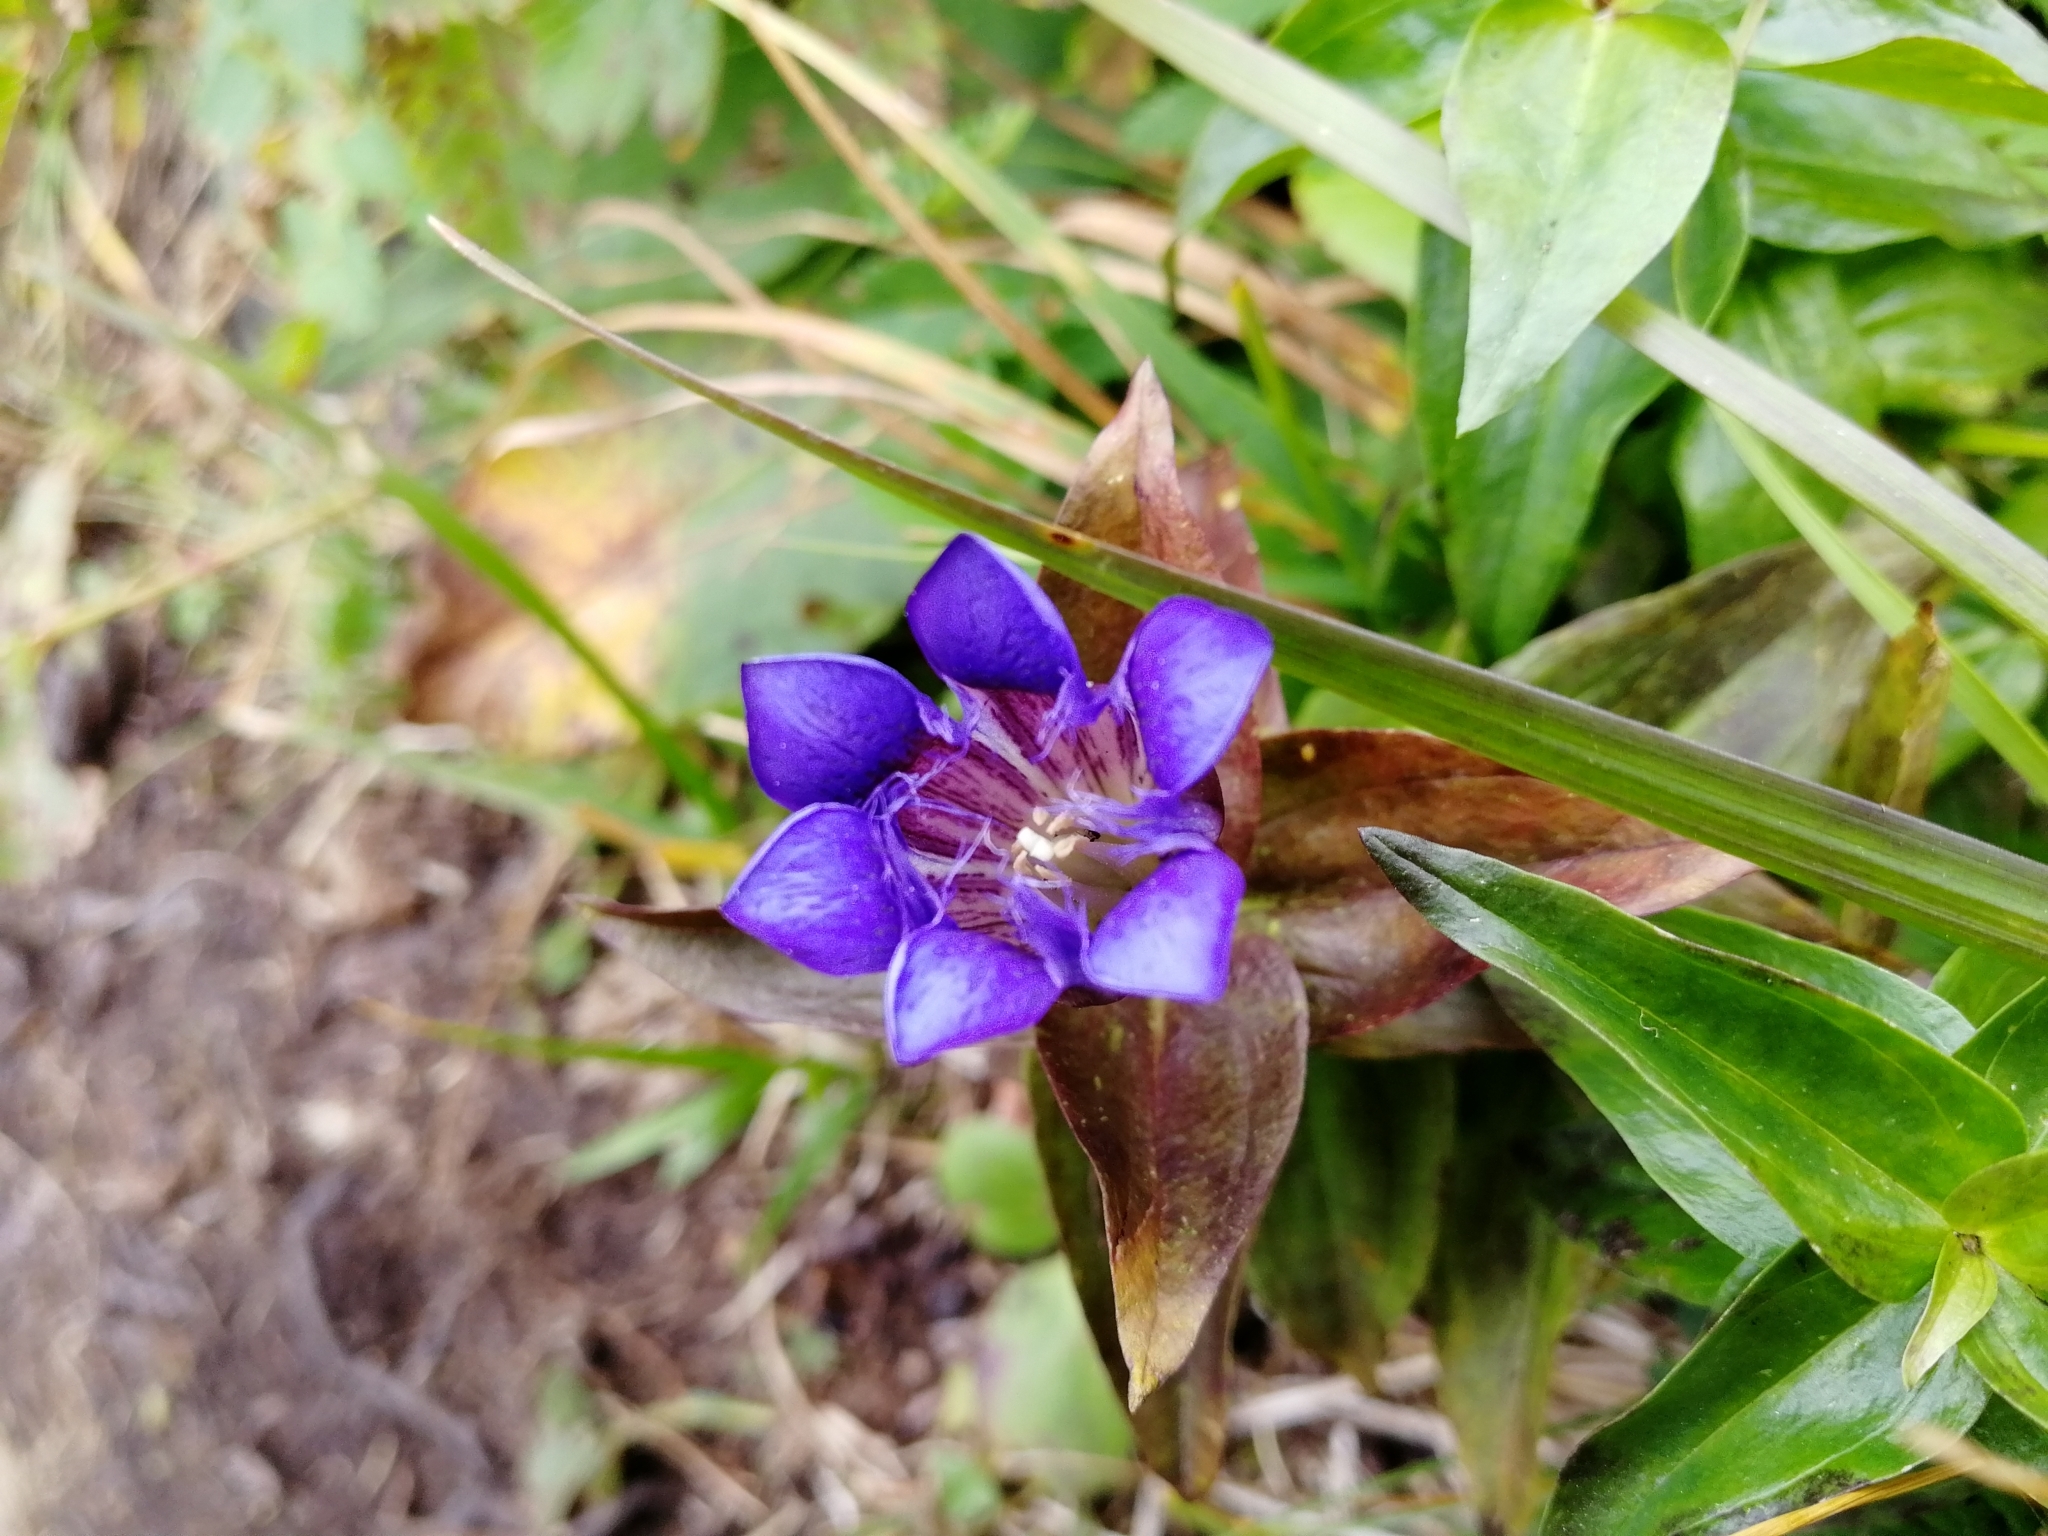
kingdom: Plantae
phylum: Tracheophyta
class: Magnoliopsida
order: Gentianales
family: Gentianaceae
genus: Gentiana
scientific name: Gentiana dschungarica
